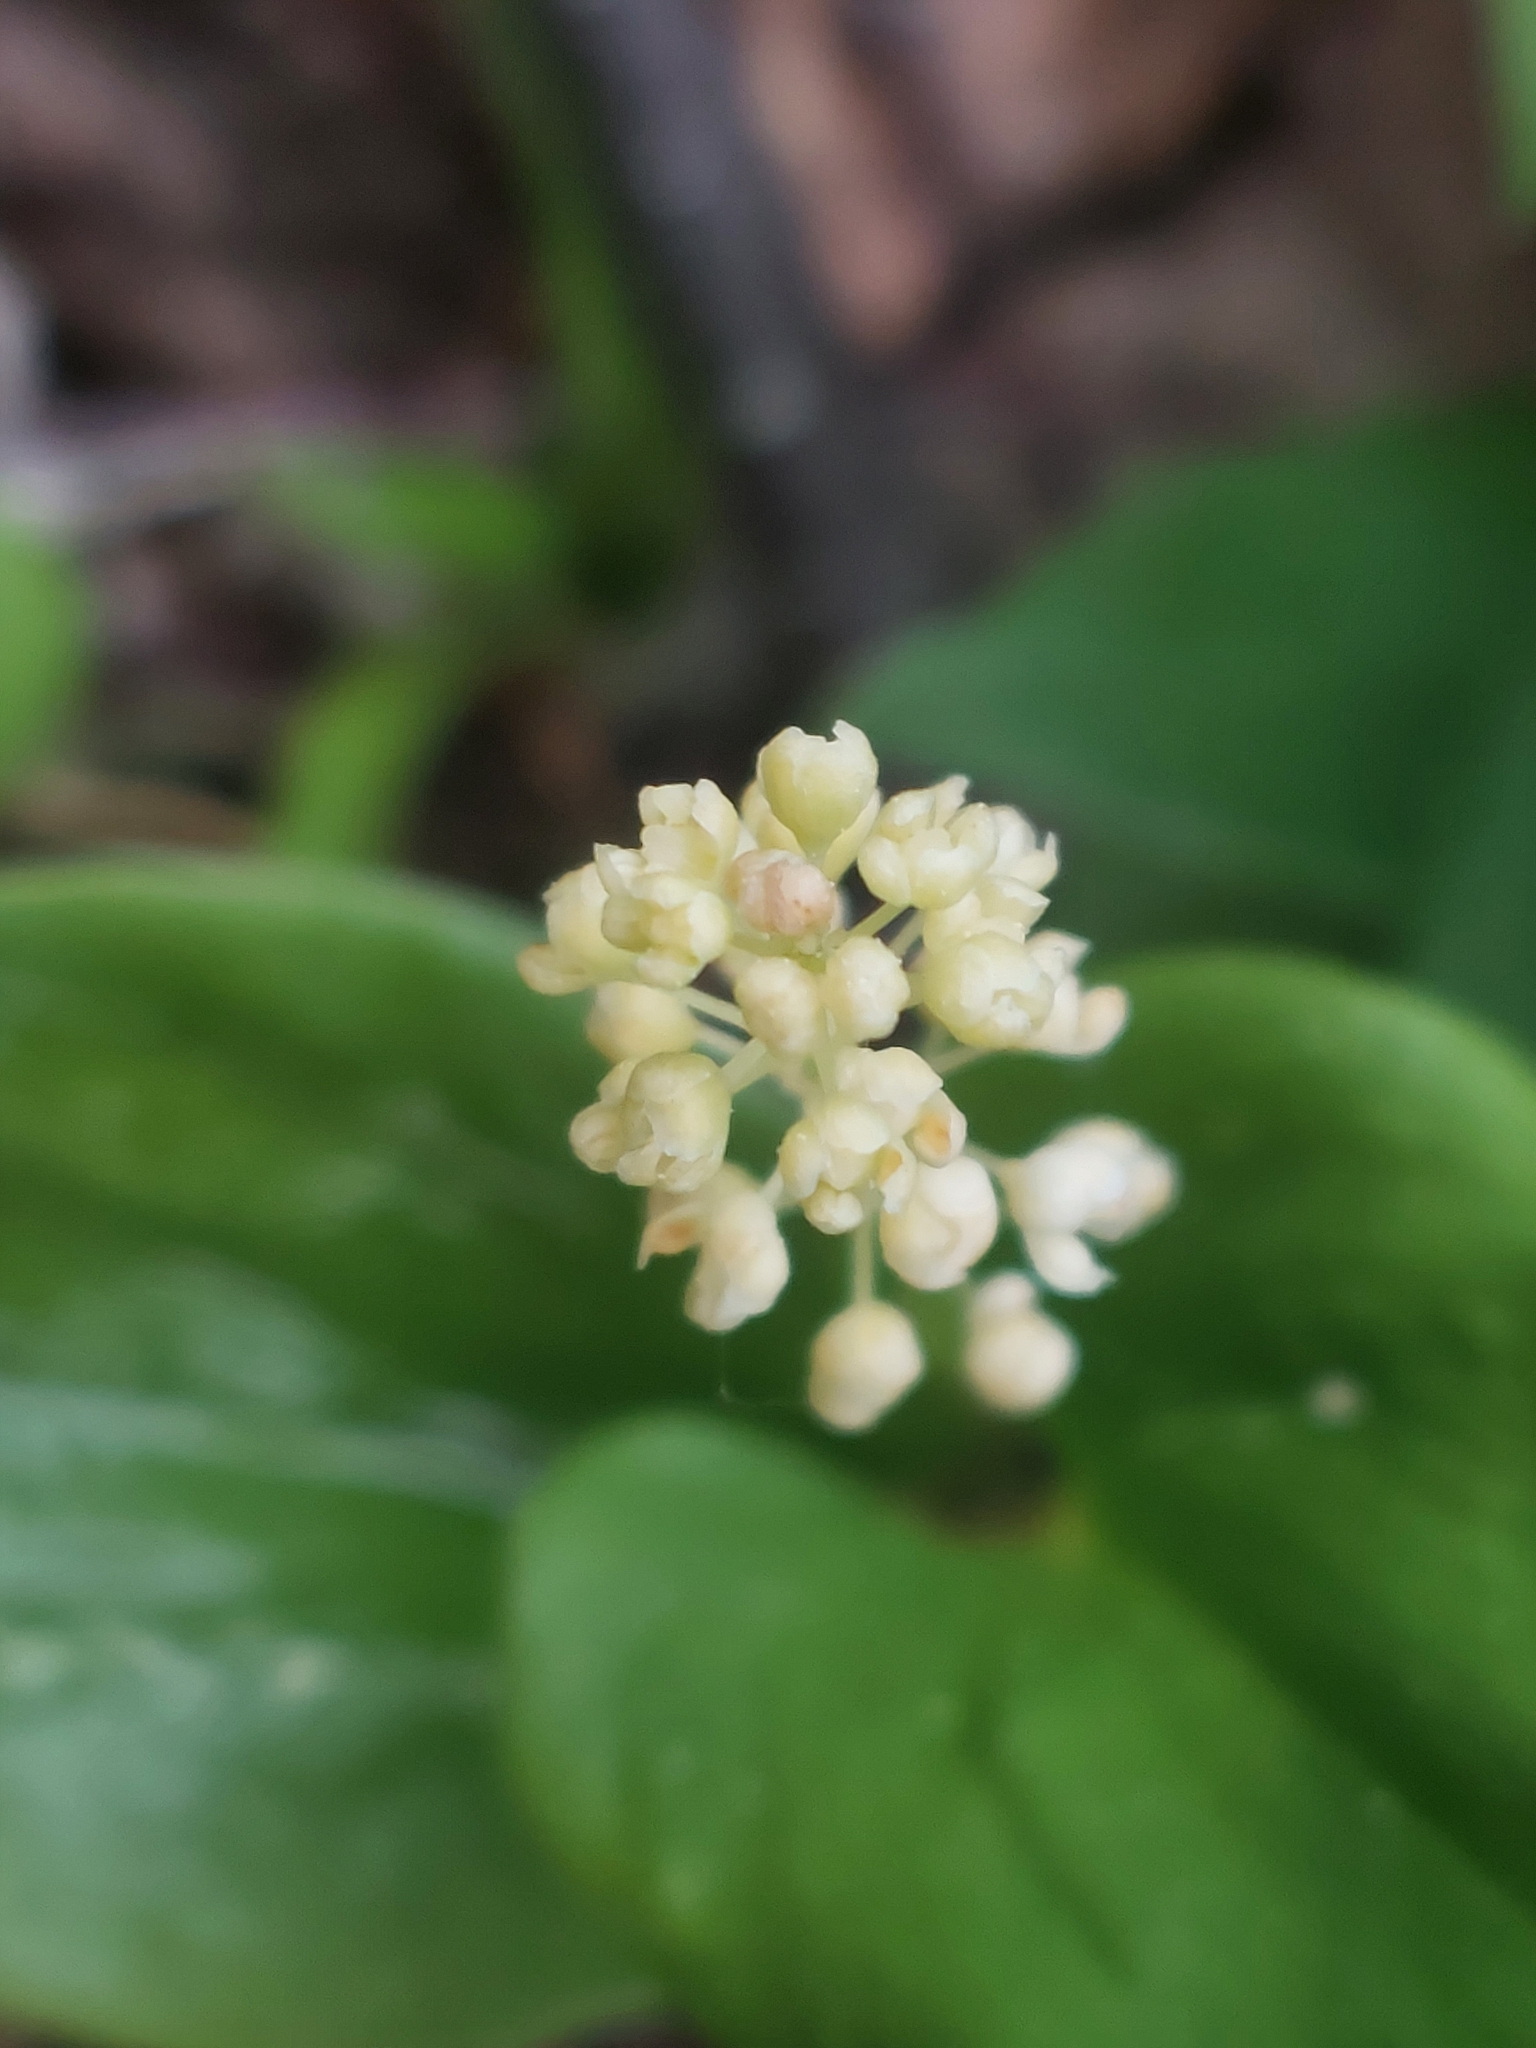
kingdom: Plantae
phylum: Tracheophyta
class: Liliopsida
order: Asparagales
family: Asparagaceae
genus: Maianthemum
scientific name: Maianthemum bifolium
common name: May lily
